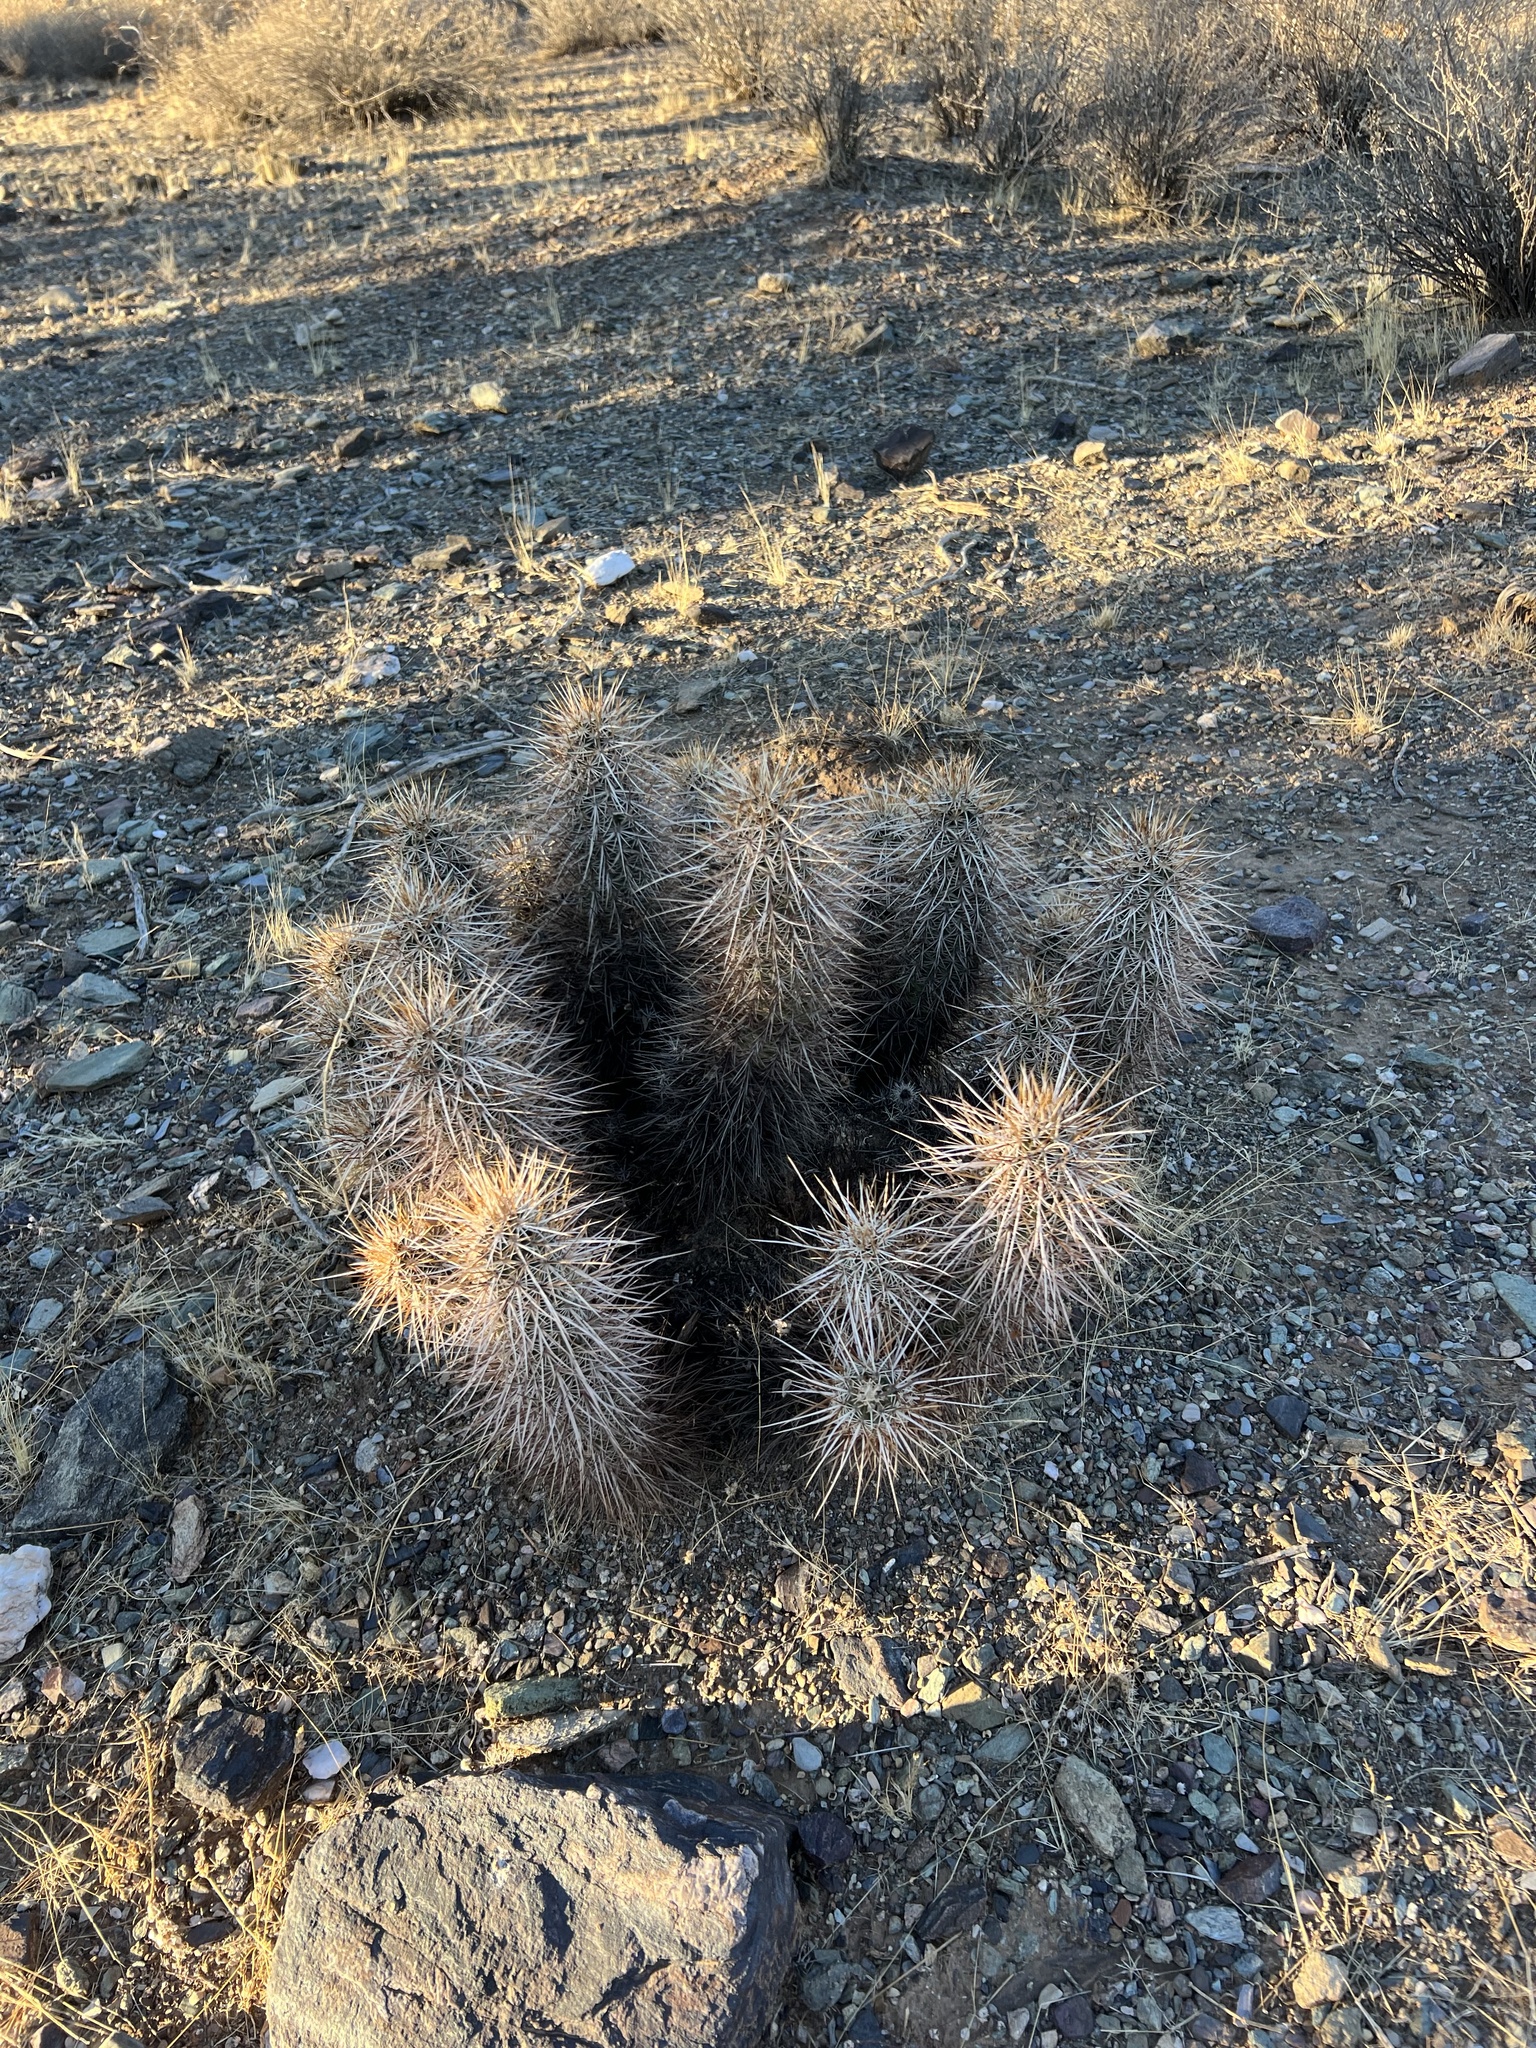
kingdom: Plantae
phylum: Tracheophyta
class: Magnoliopsida
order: Caryophyllales
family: Cactaceae
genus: Echinocereus
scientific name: Echinocereus engelmannii
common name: Engelmann's hedgehog cactus
